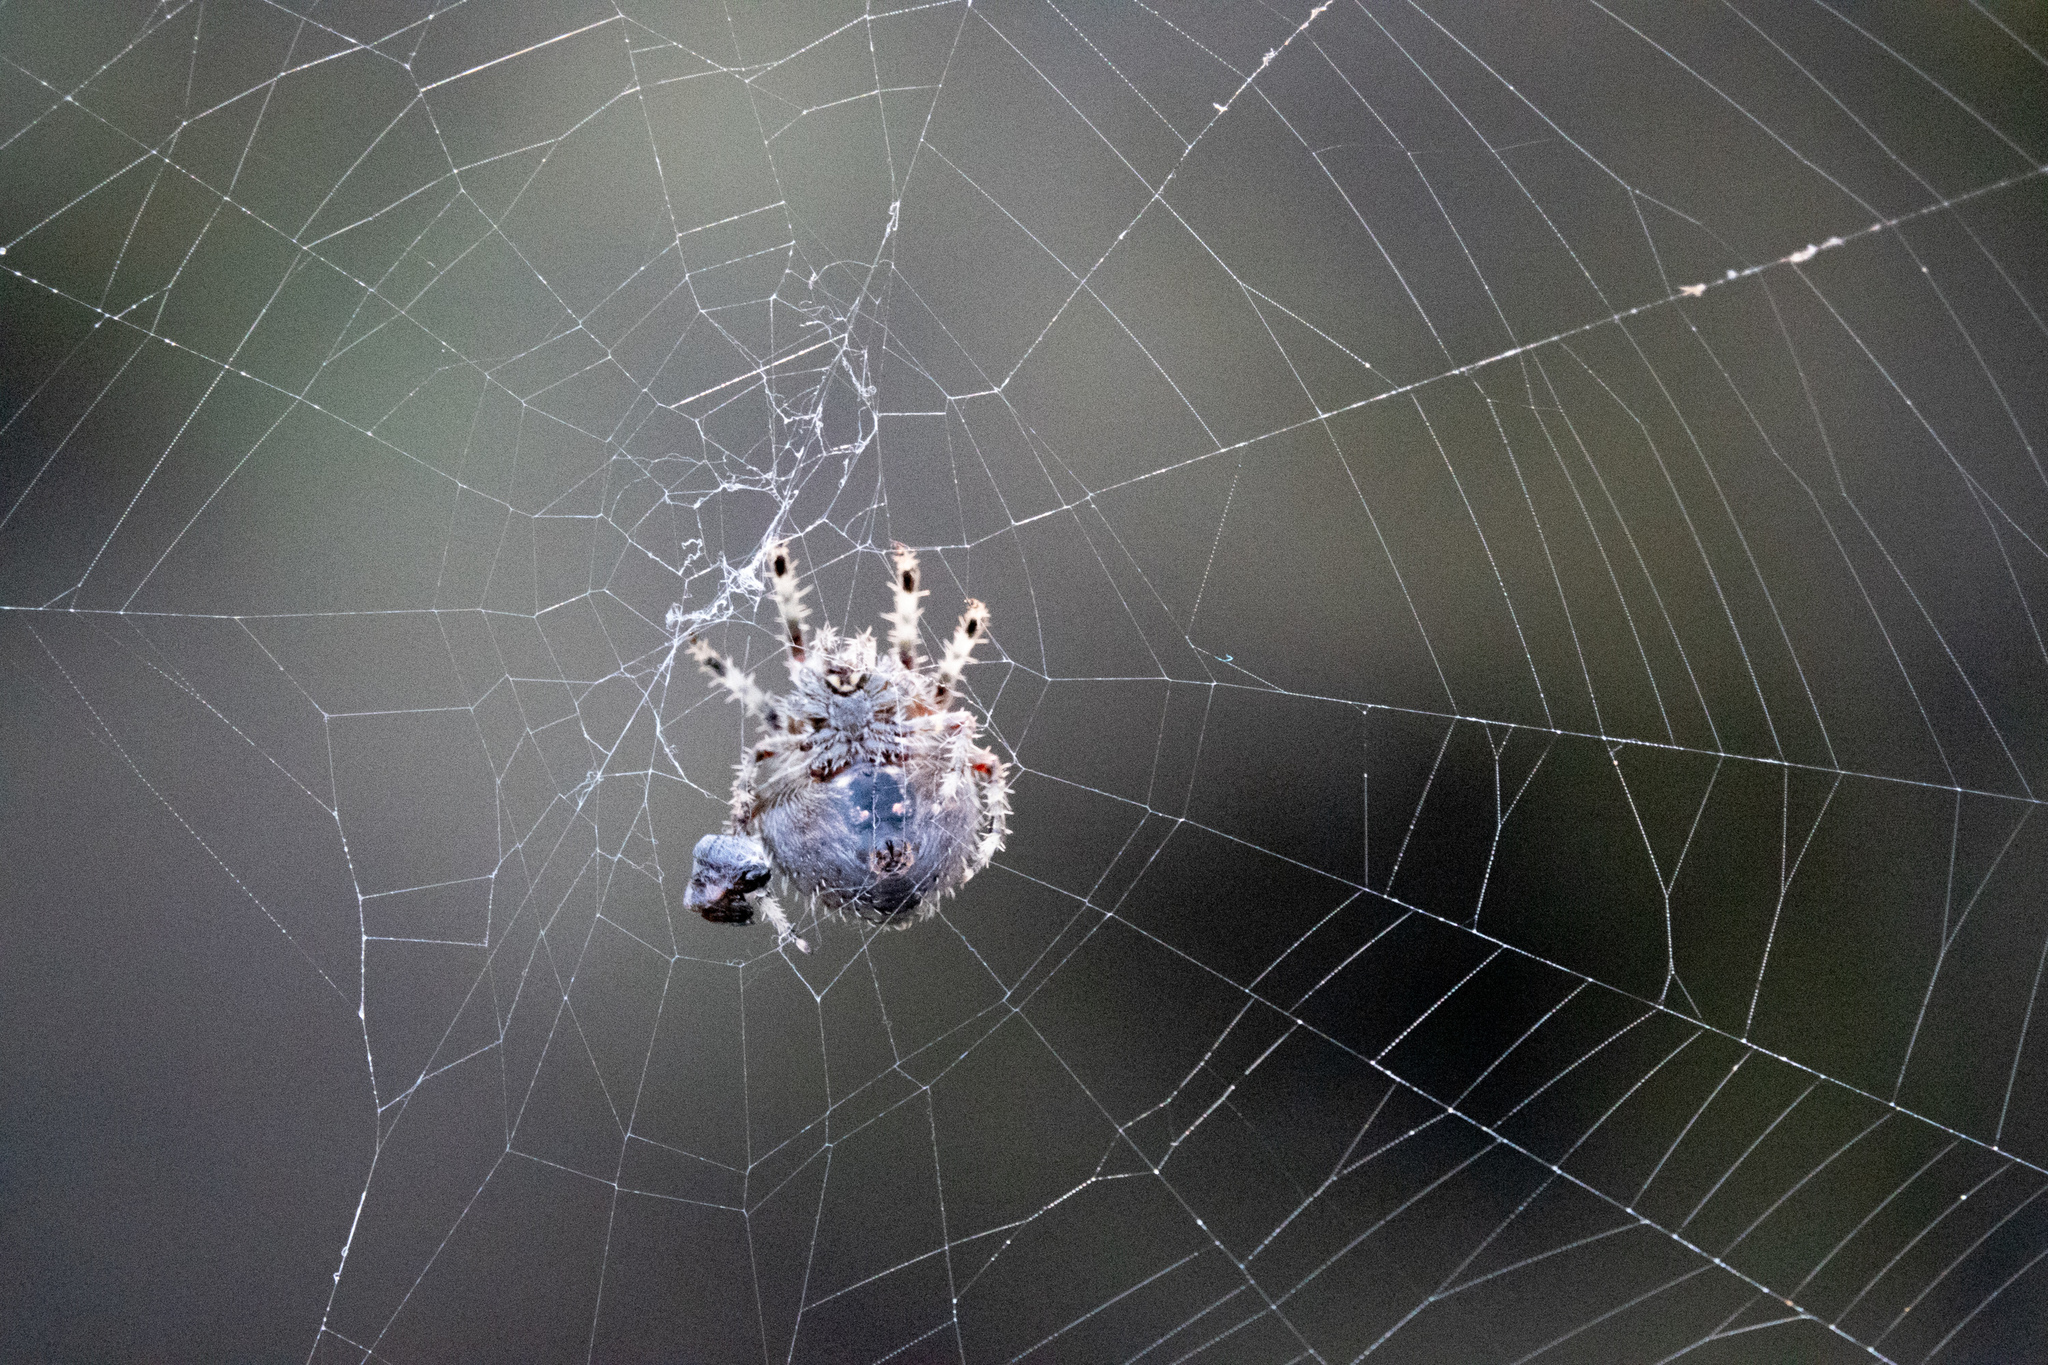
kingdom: Animalia
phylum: Arthropoda
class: Arachnida
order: Araneae
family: Araneidae
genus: Araneus
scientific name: Araneus gemma
